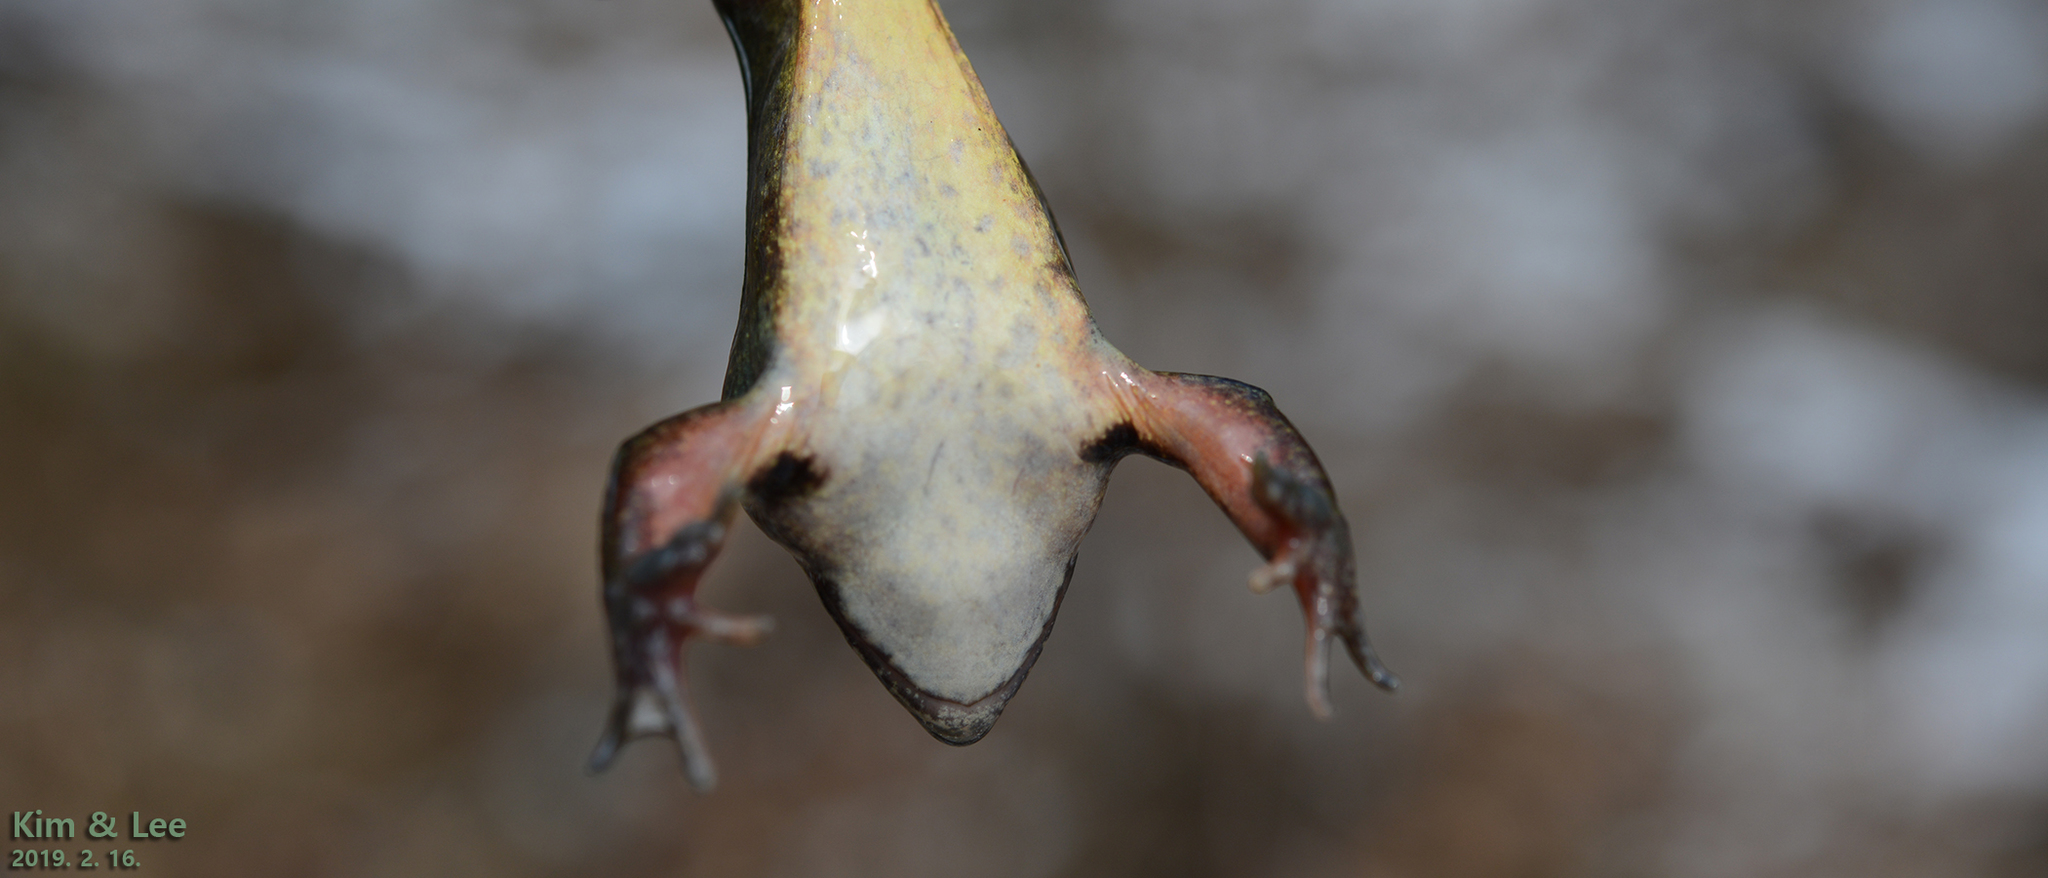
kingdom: Animalia
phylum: Chordata
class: Amphibia
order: Anura
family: Ranidae
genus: Rana
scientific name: Rana dybowskii
